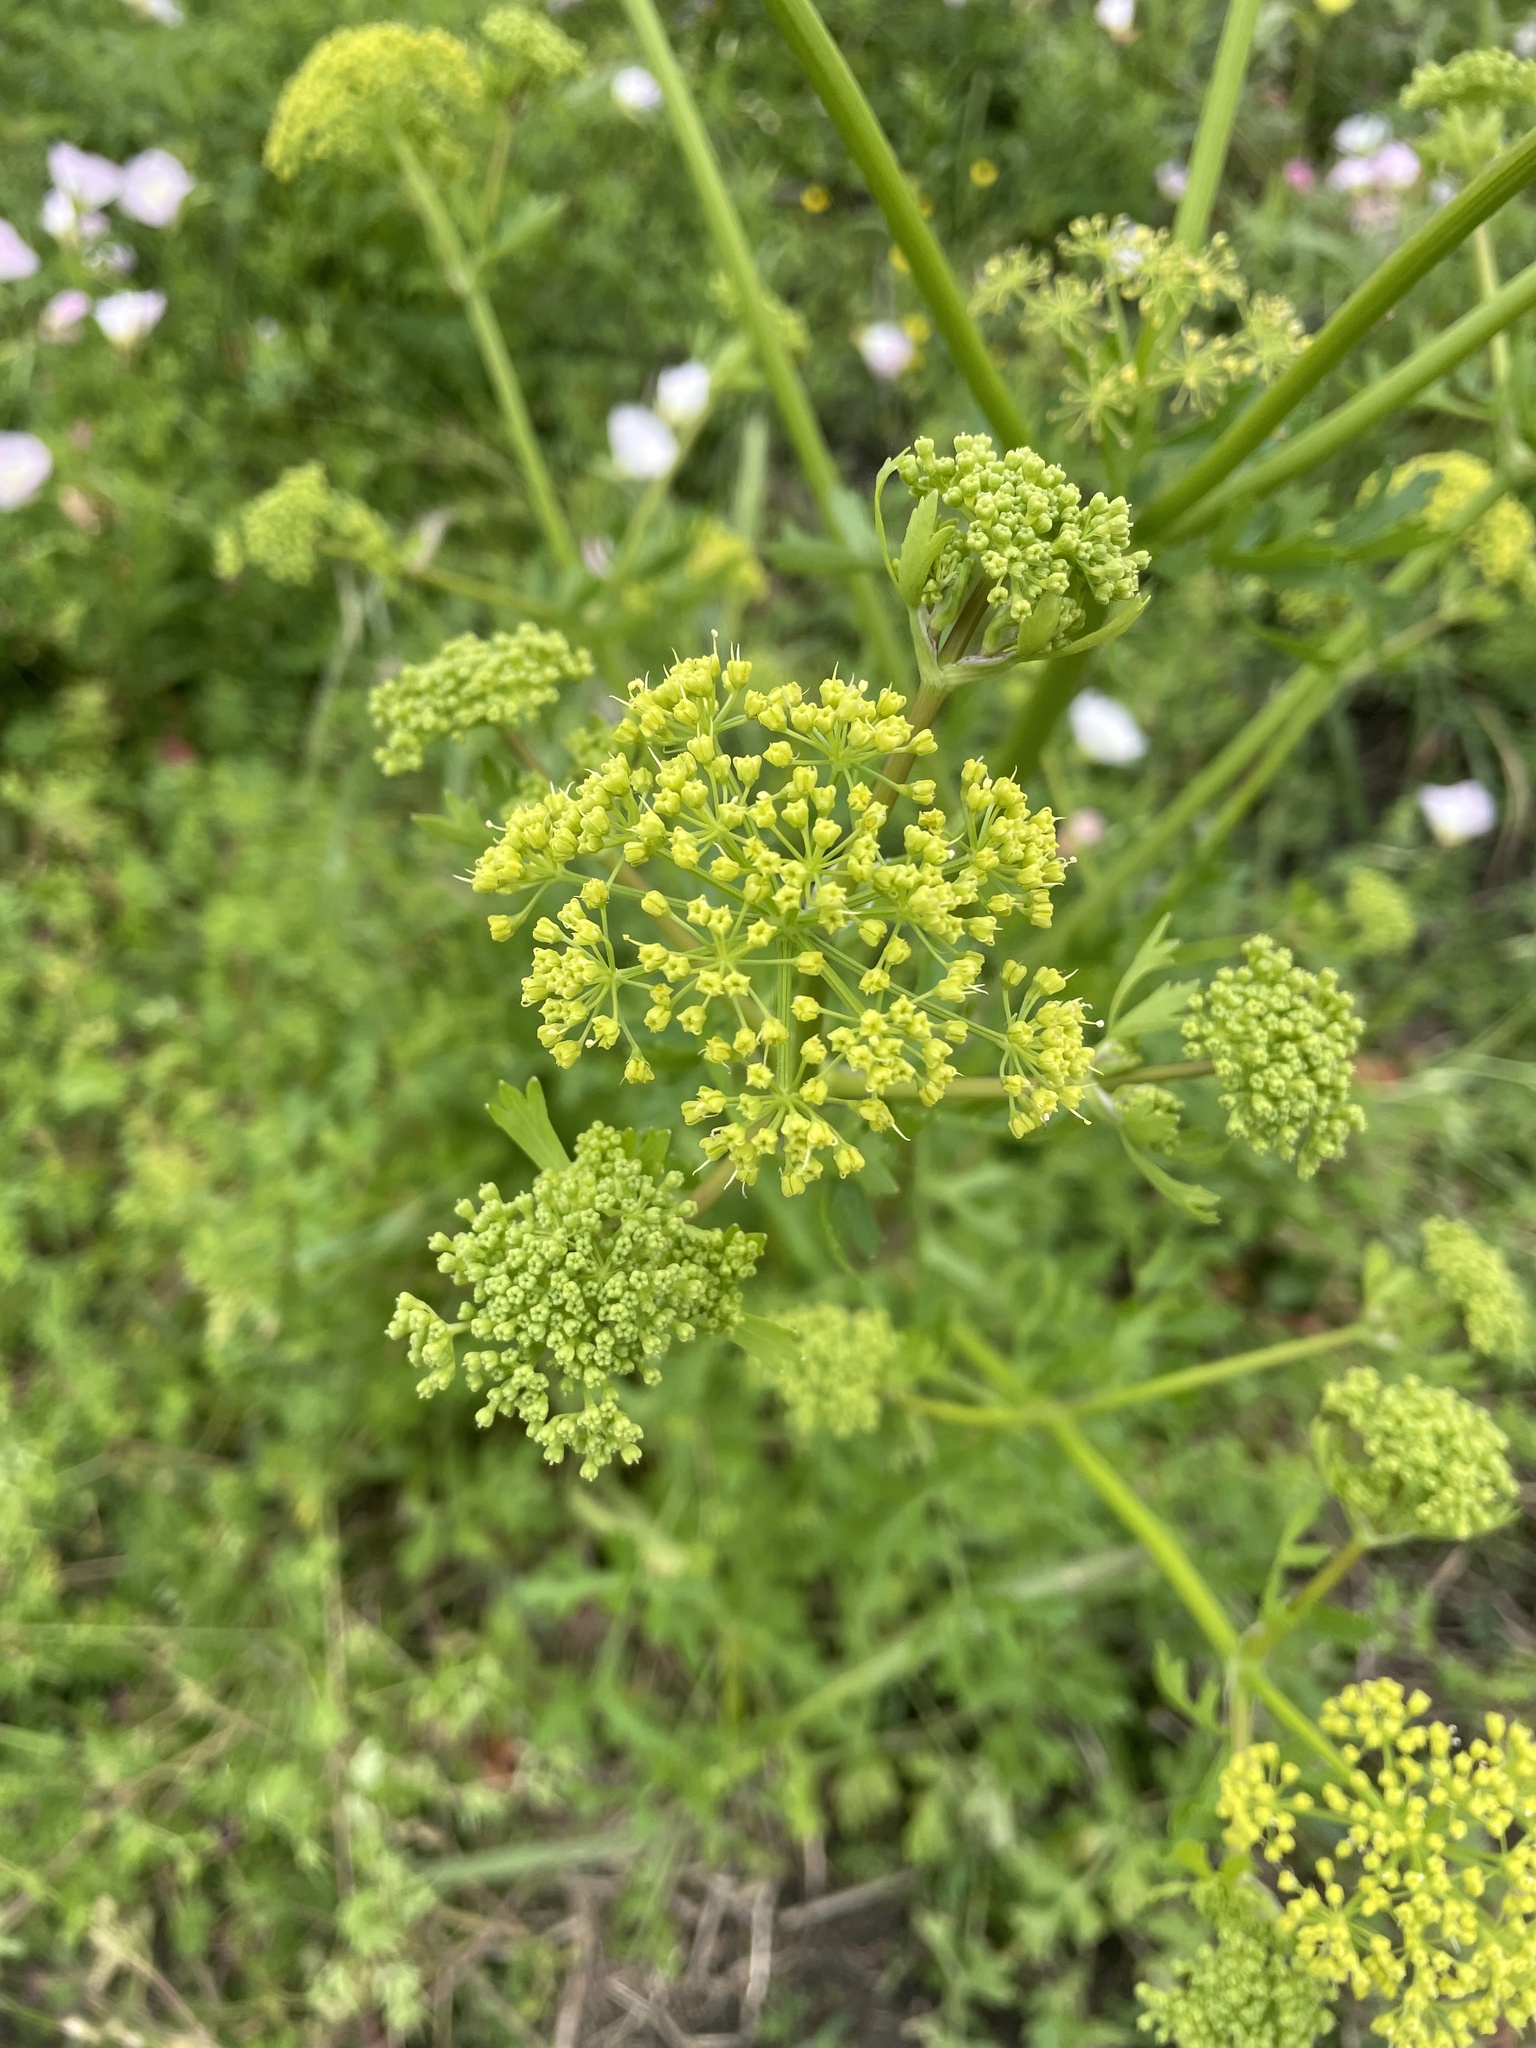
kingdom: Plantae
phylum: Tracheophyta
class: Magnoliopsida
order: Apiales
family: Apiaceae
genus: Polytaenia
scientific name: Polytaenia texana
